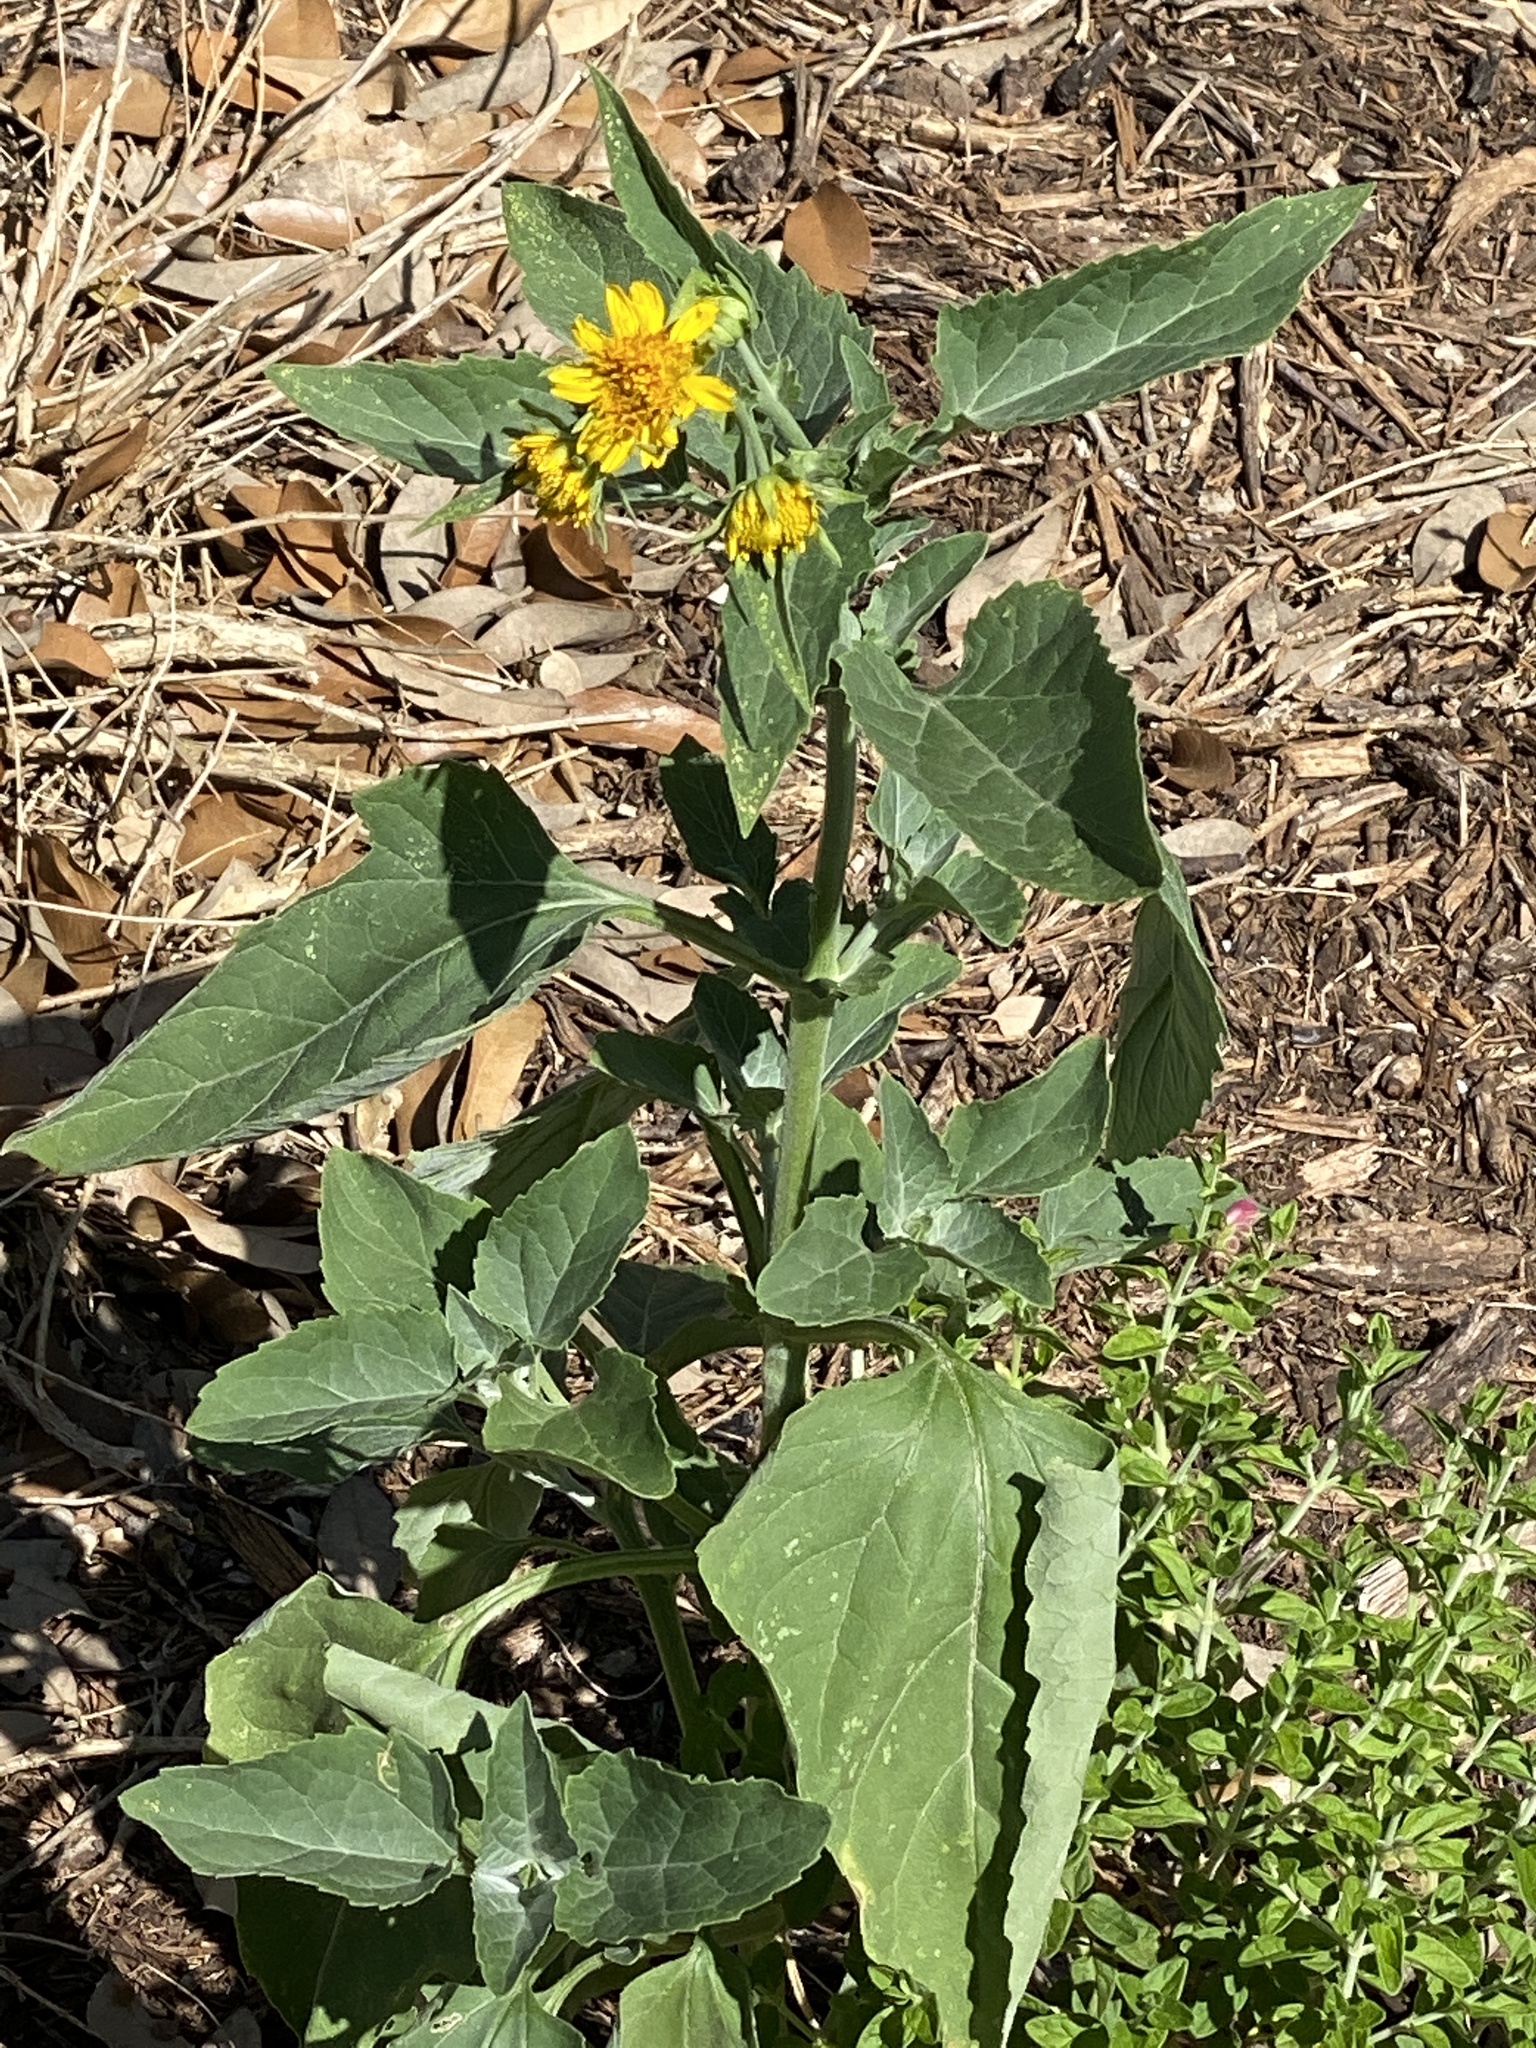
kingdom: Plantae
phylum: Tracheophyta
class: Magnoliopsida
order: Asterales
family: Asteraceae
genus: Verbesina
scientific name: Verbesina encelioides
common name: Golden crownbeard
